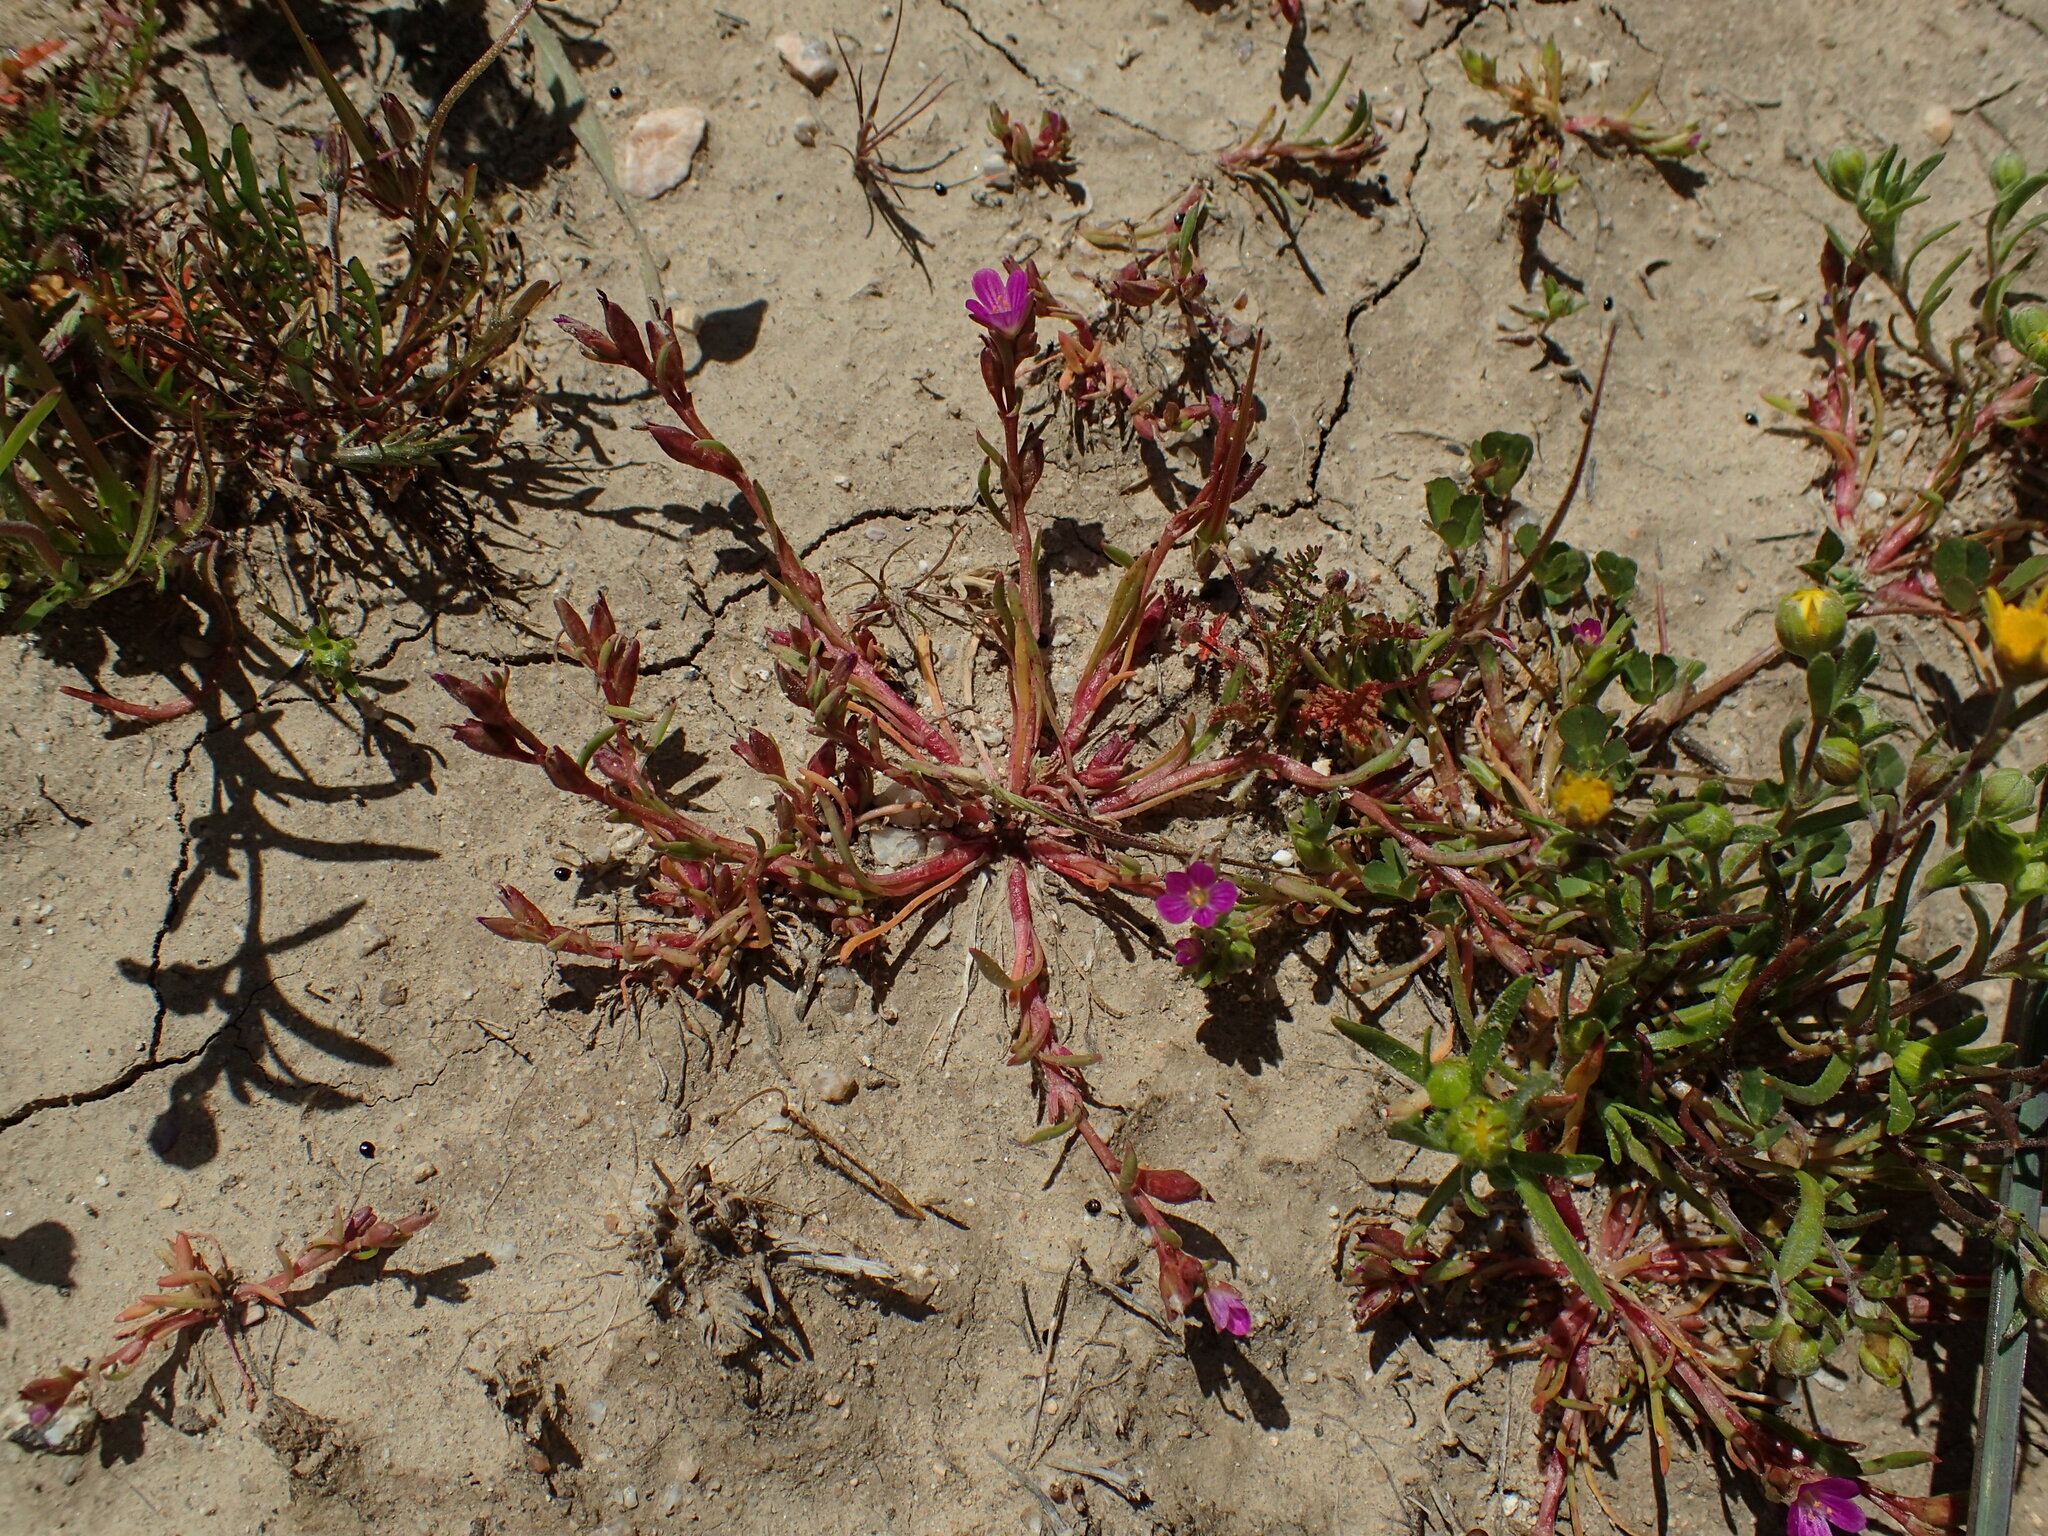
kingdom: Plantae
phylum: Tracheophyta
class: Magnoliopsida
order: Caryophyllales
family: Montiaceae
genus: Calandrinia
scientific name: Calandrinia menziesii
